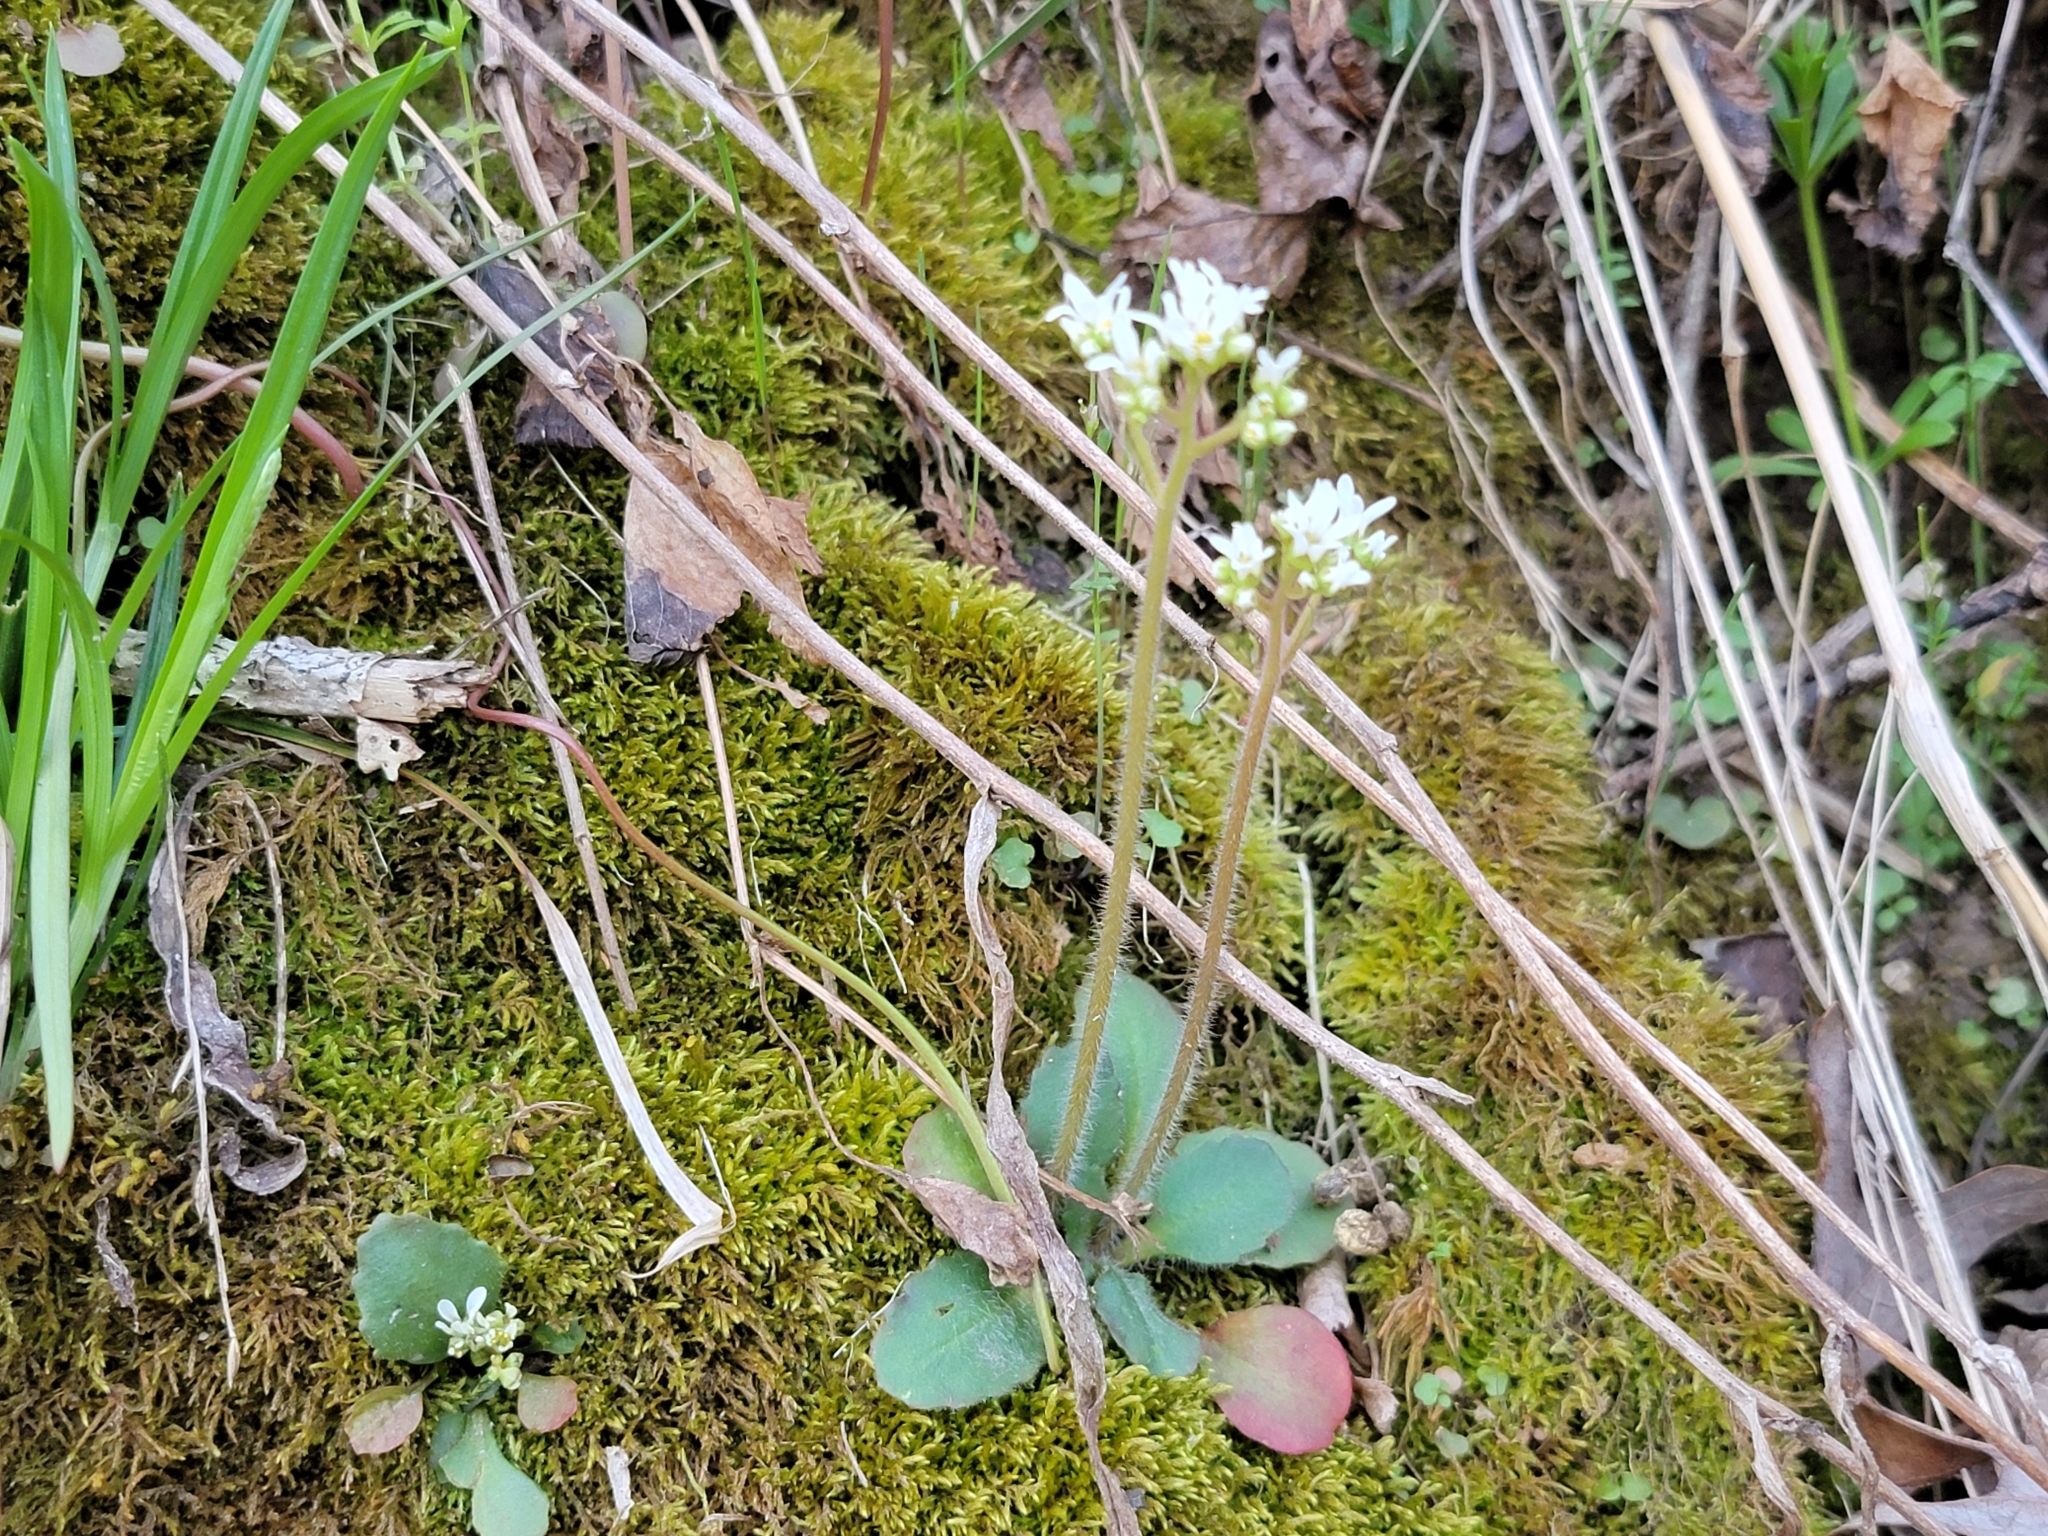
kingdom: Plantae
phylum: Tracheophyta
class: Magnoliopsida
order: Saxifragales
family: Saxifragaceae
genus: Micranthes
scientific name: Micranthes virginiensis
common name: Early saxifrage
